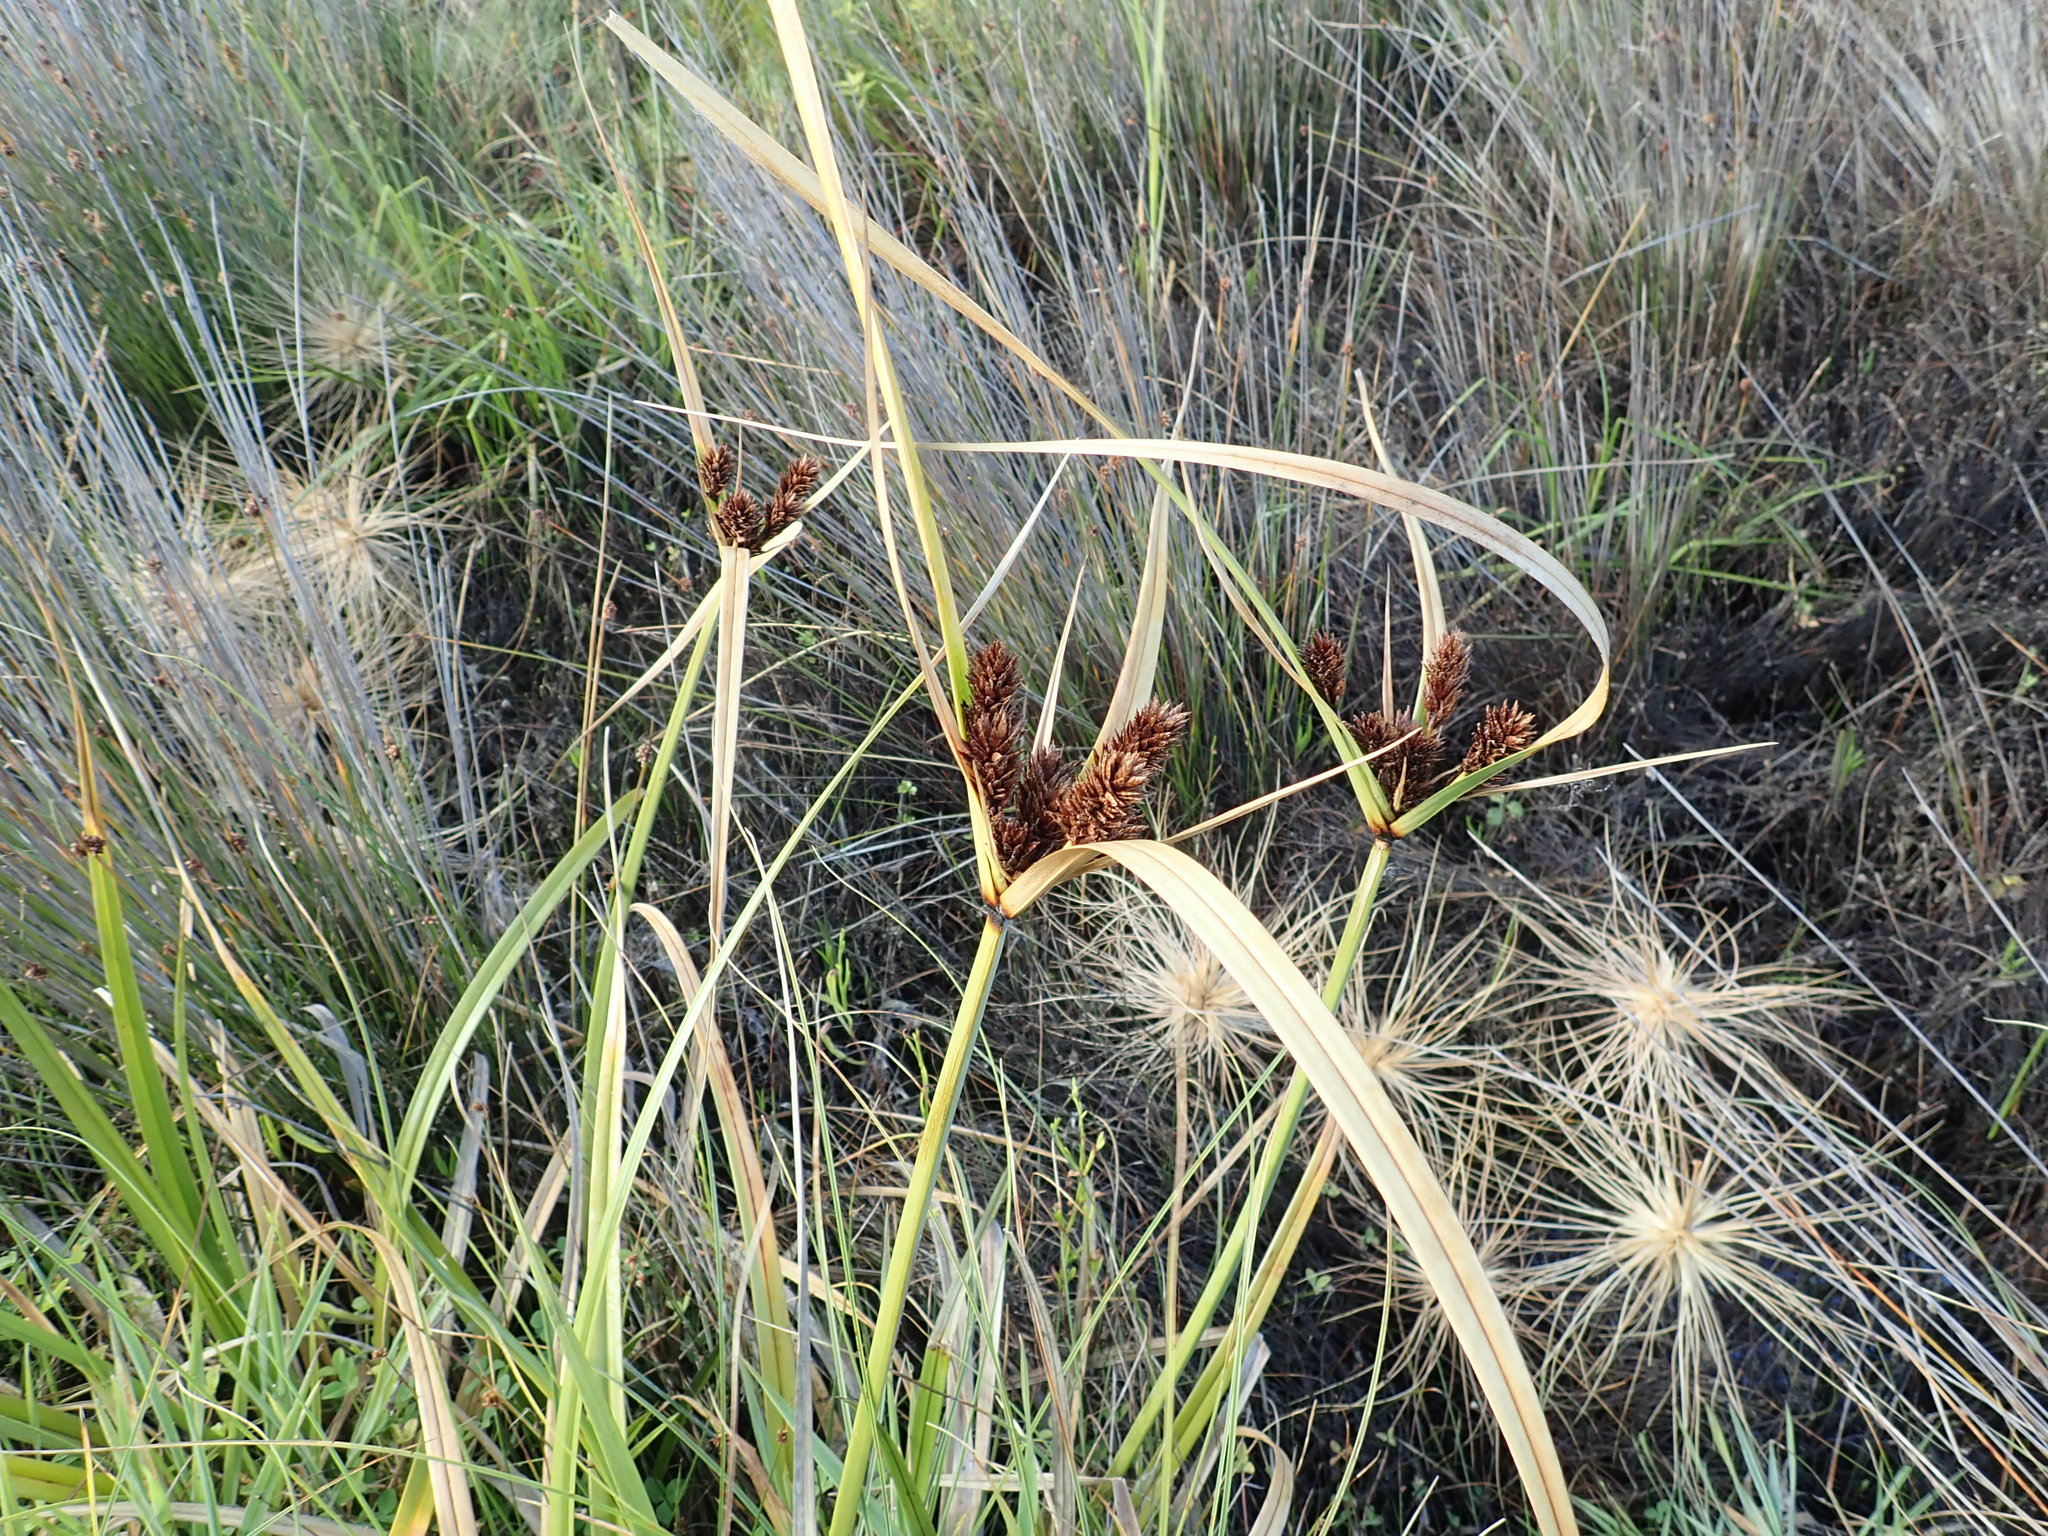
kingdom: Plantae
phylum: Tracheophyta
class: Liliopsida
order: Poales
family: Cyperaceae
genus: Cyperus
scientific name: Cyperus ustulatus
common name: Giant umbrella-sedge
